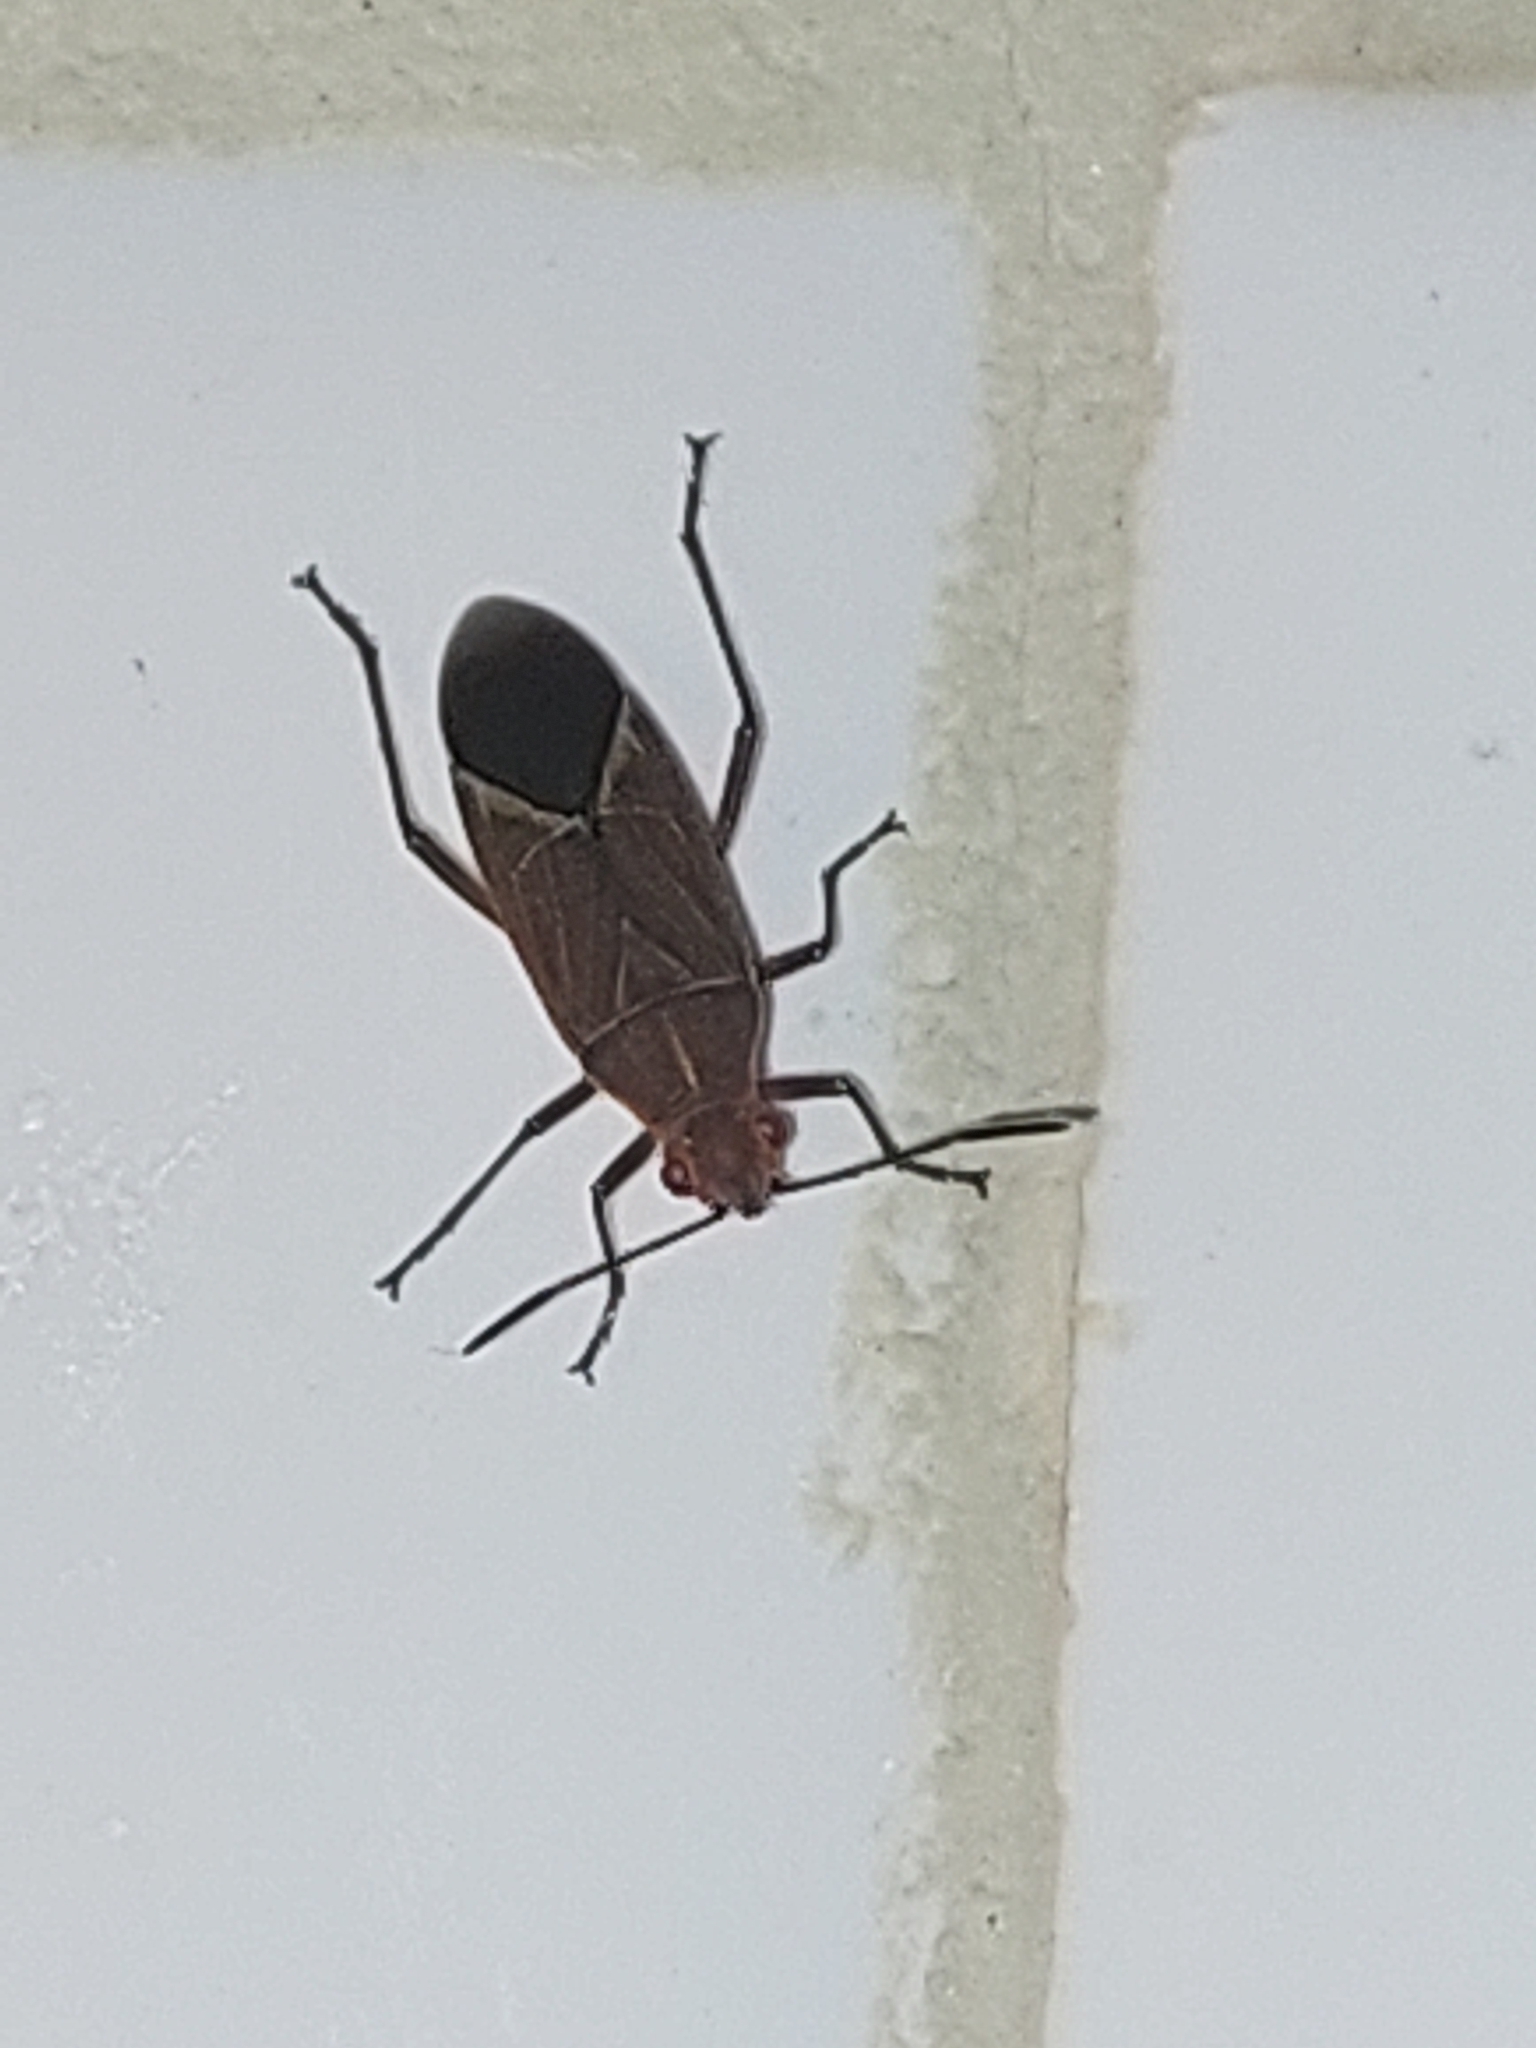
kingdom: Animalia
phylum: Arthropoda
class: Insecta
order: Hemiptera
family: Rhopalidae
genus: Boisea
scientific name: Boisea fulcrata
